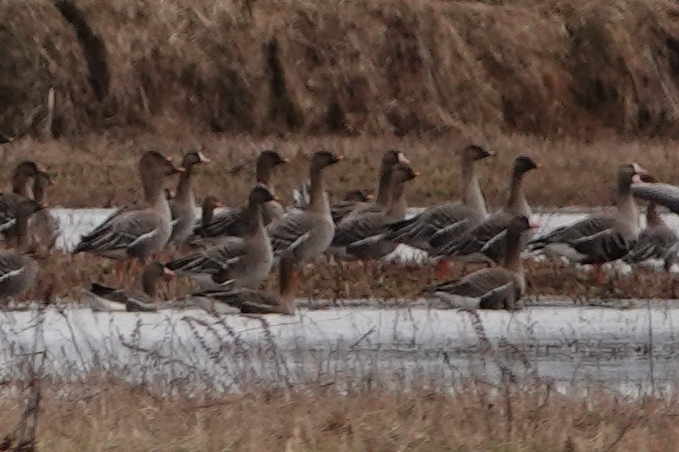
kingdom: Animalia
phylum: Chordata
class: Aves
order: Anseriformes
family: Anatidae
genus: Anser
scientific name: Anser serrirostris
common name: Tundra bean goose
